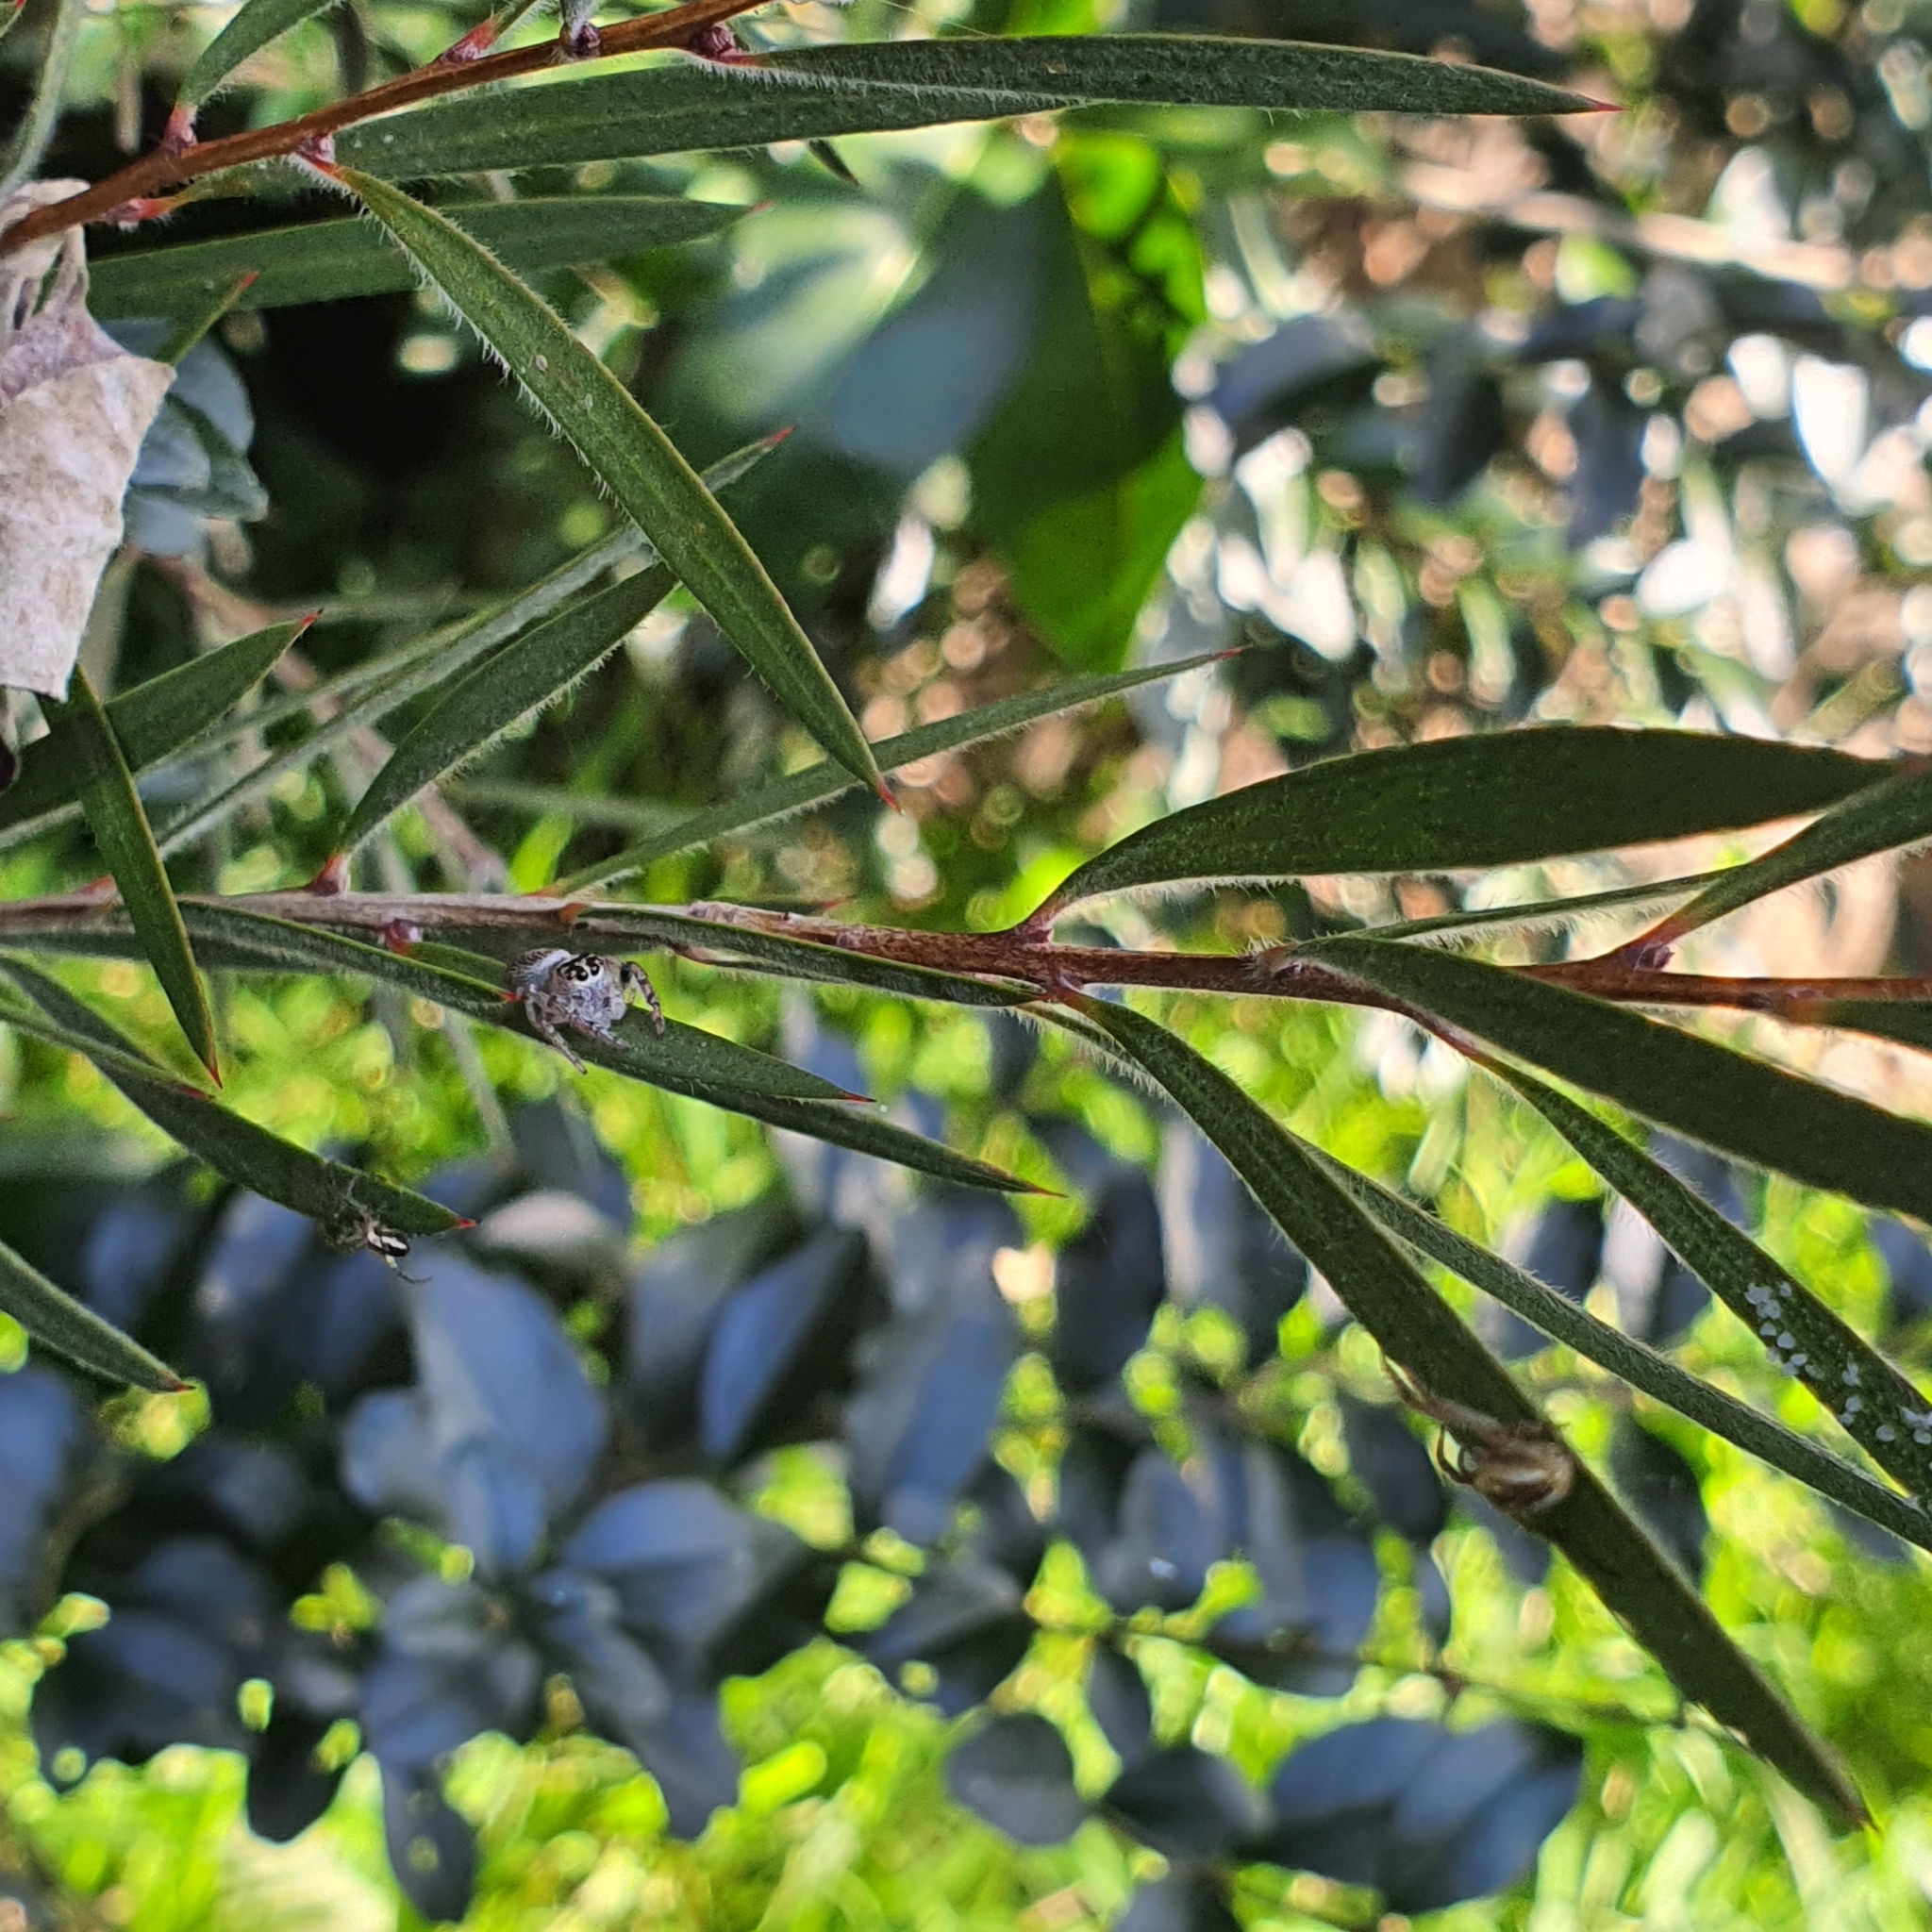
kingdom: Animalia
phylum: Arthropoda
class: Arachnida
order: Araneae
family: Salticidae
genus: Opisthoncus
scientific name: Opisthoncus nigrofemoratus
